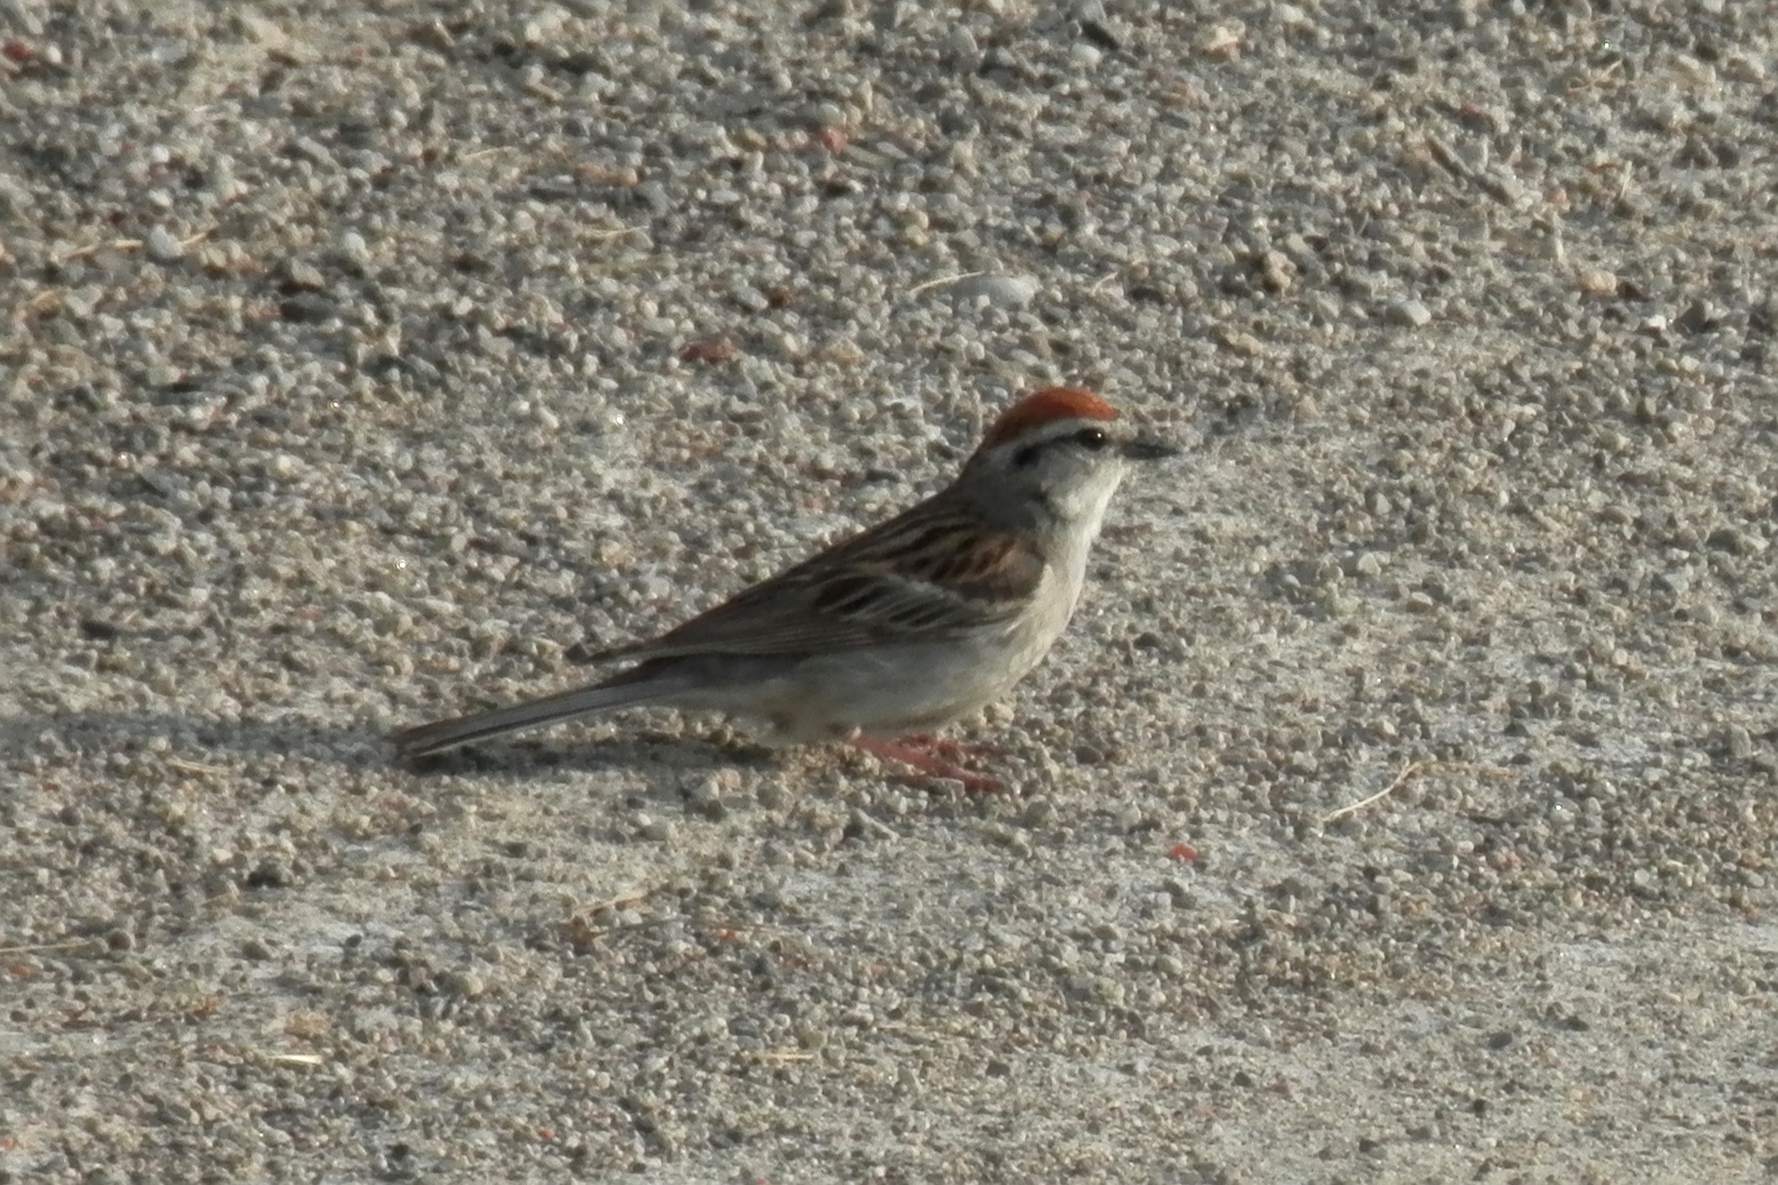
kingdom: Animalia
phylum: Chordata
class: Aves
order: Passeriformes
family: Passerellidae
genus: Spizella
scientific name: Spizella passerina
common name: Chipping sparrow
